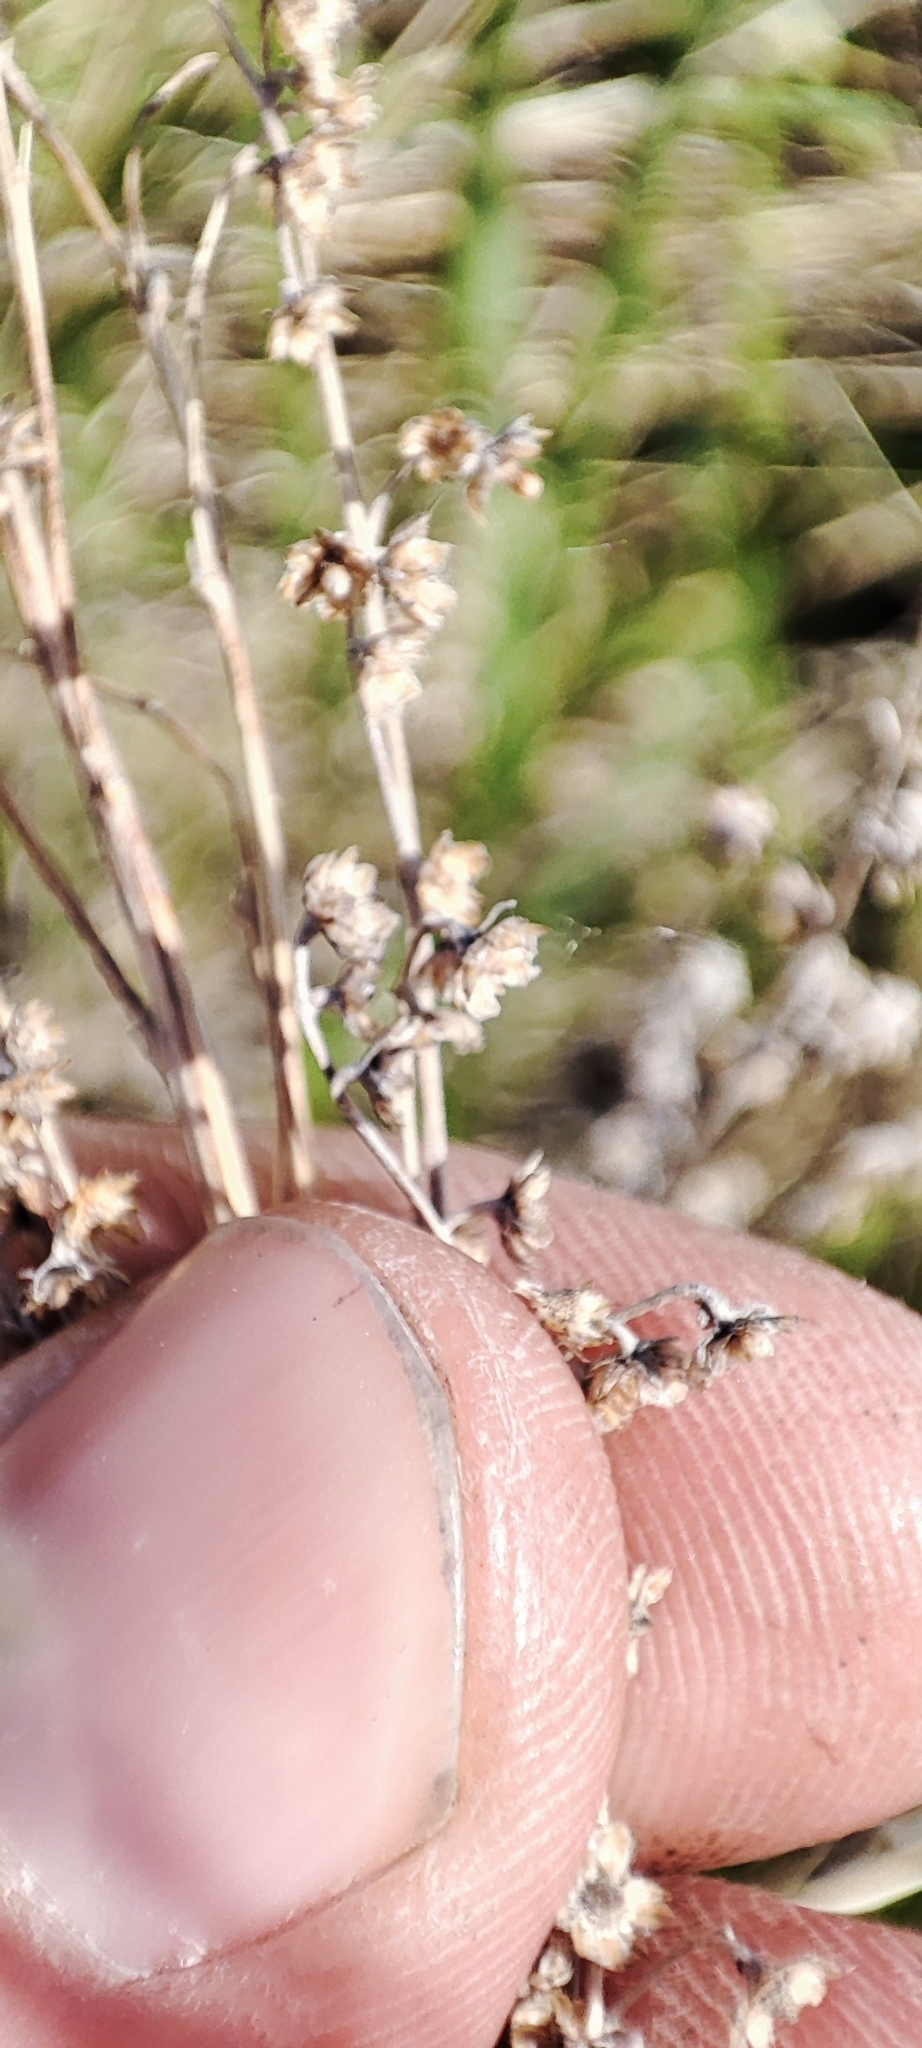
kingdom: Plantae
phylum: Tracheophyta
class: Magnoliopsida
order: Asterales
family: Asteraceae
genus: Artemisia
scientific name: Artemisia absinthium
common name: Wormwood
